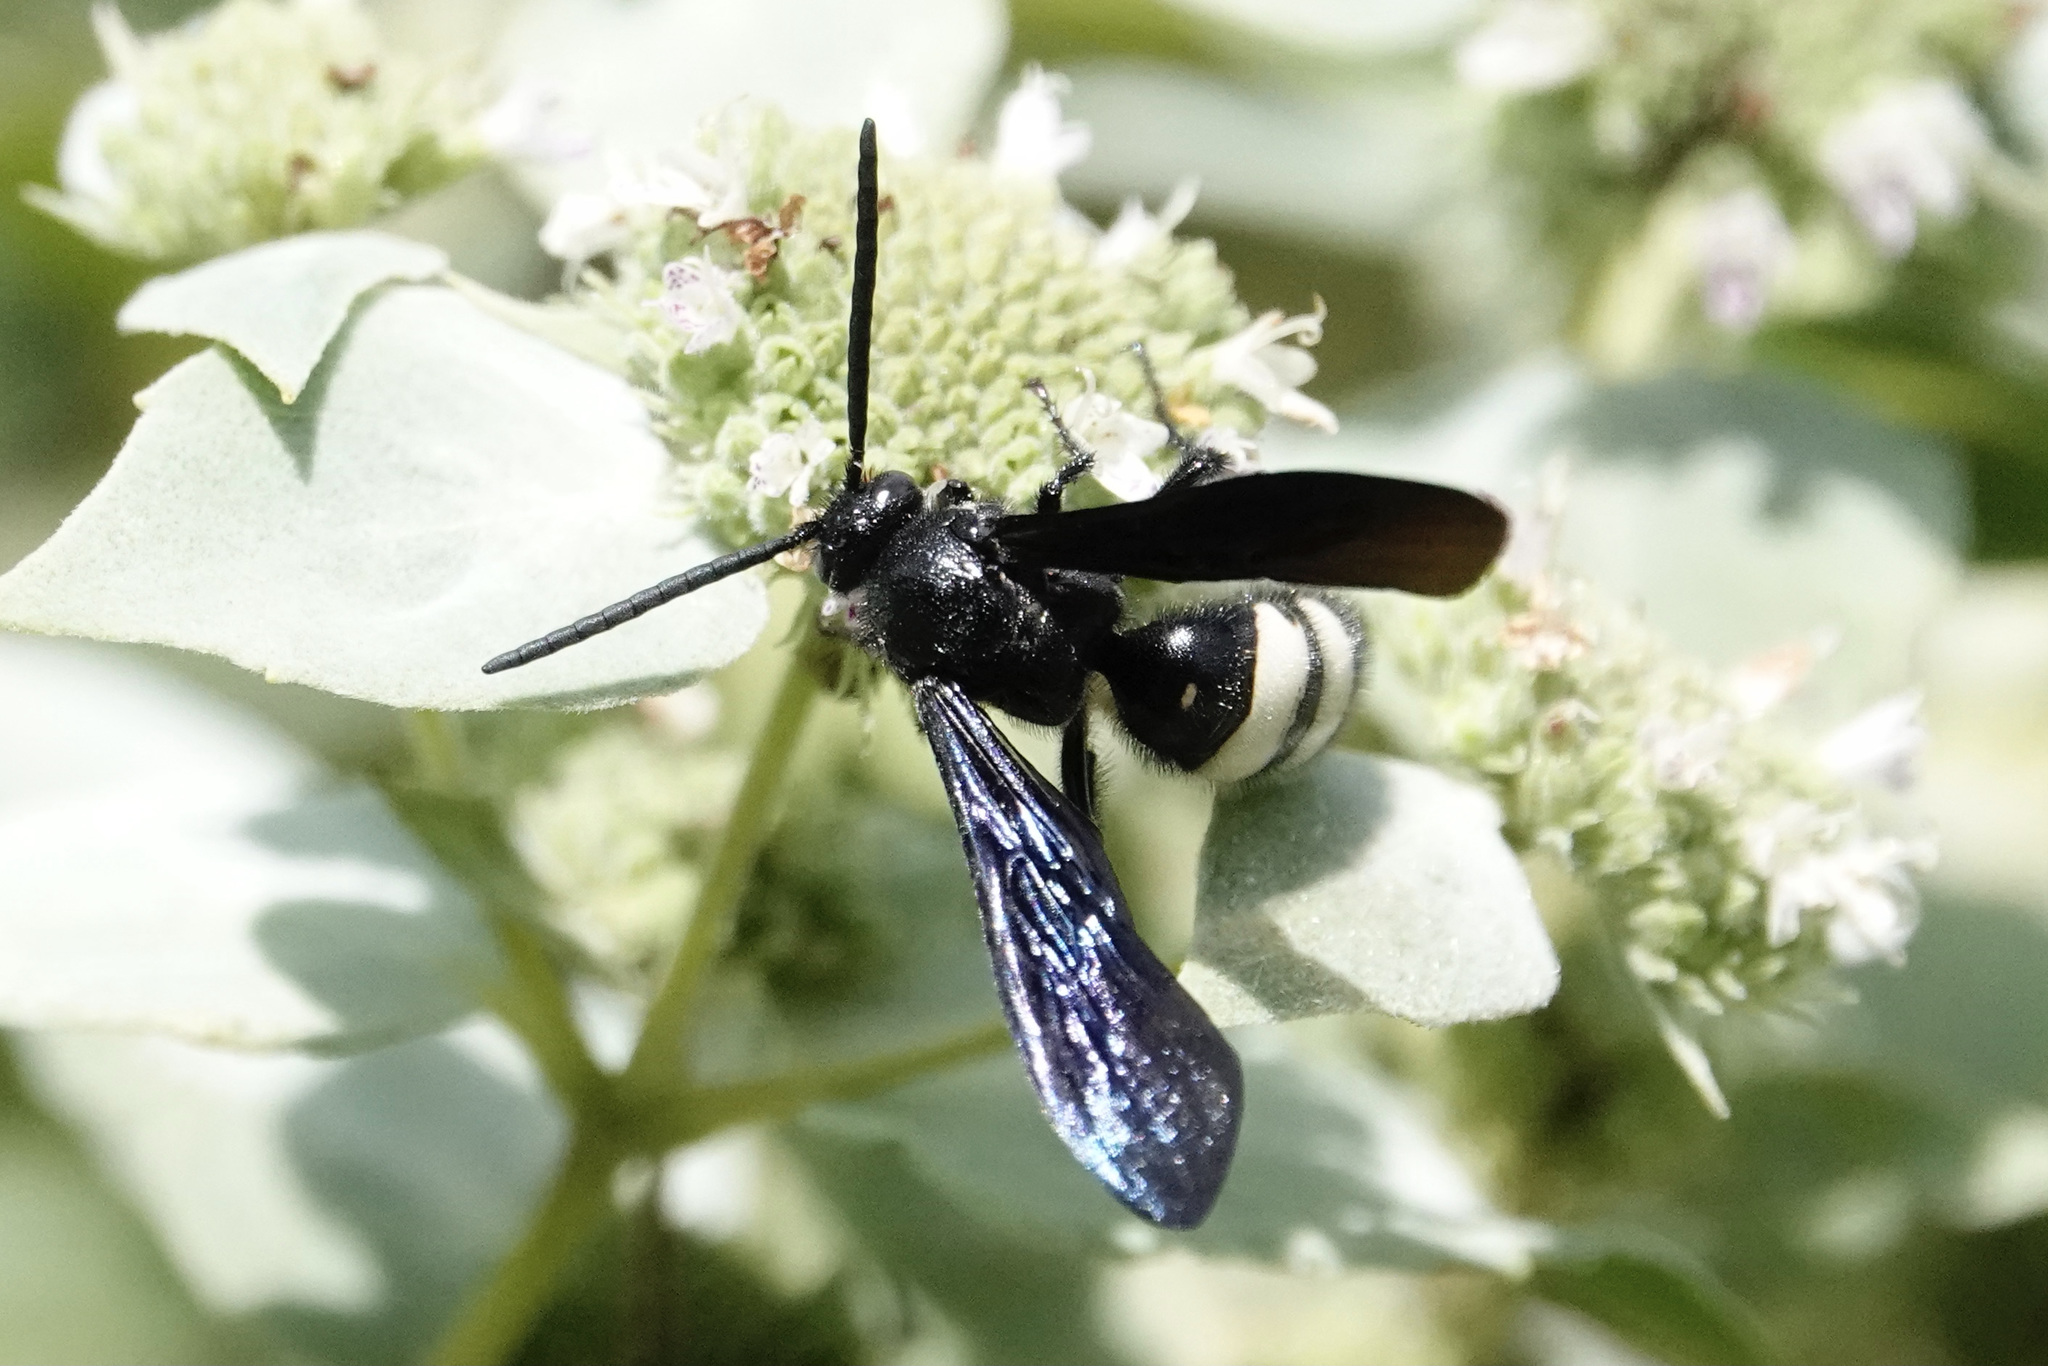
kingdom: Animalia
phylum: Arthropoda
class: Insecta
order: Hymenoptera
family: Scoliidae
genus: Scolia
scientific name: Scolia bicincta
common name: Double-banded scoliid wasp
